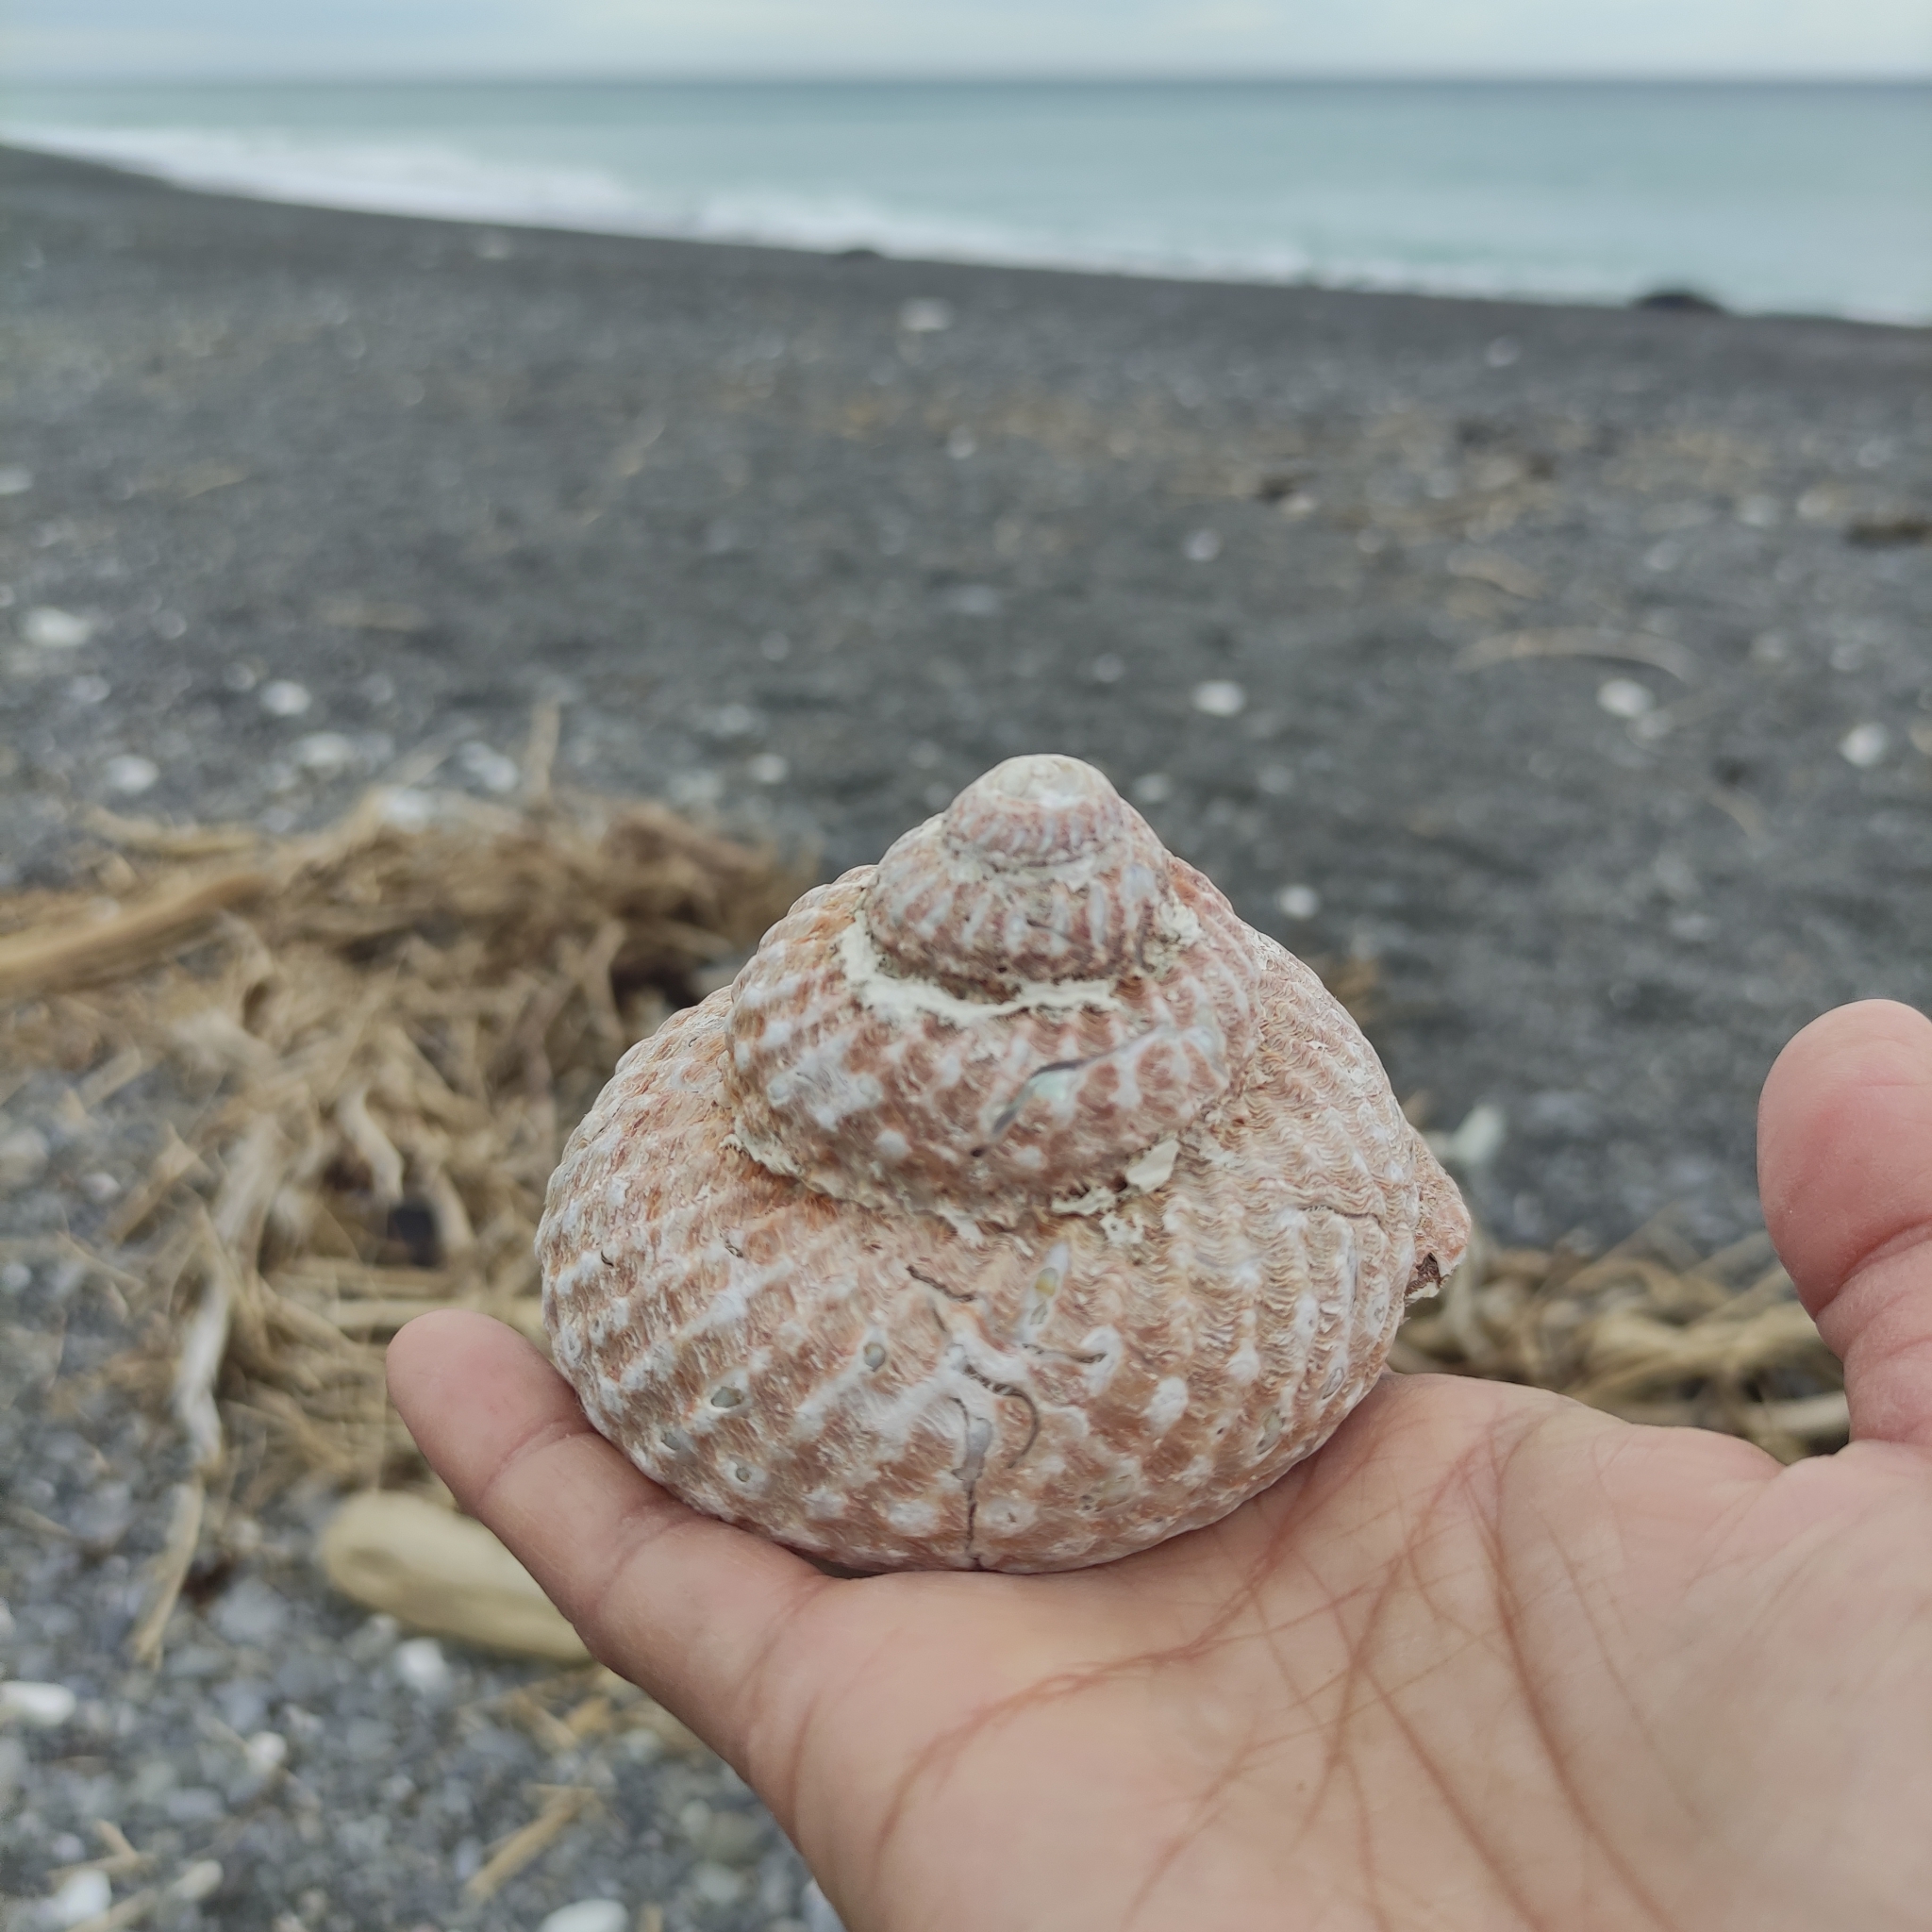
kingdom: Animalia
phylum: Mollusca
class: Gastropoda
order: Trochida
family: Turbinidae
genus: Cookia
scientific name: Cookia sulcata
